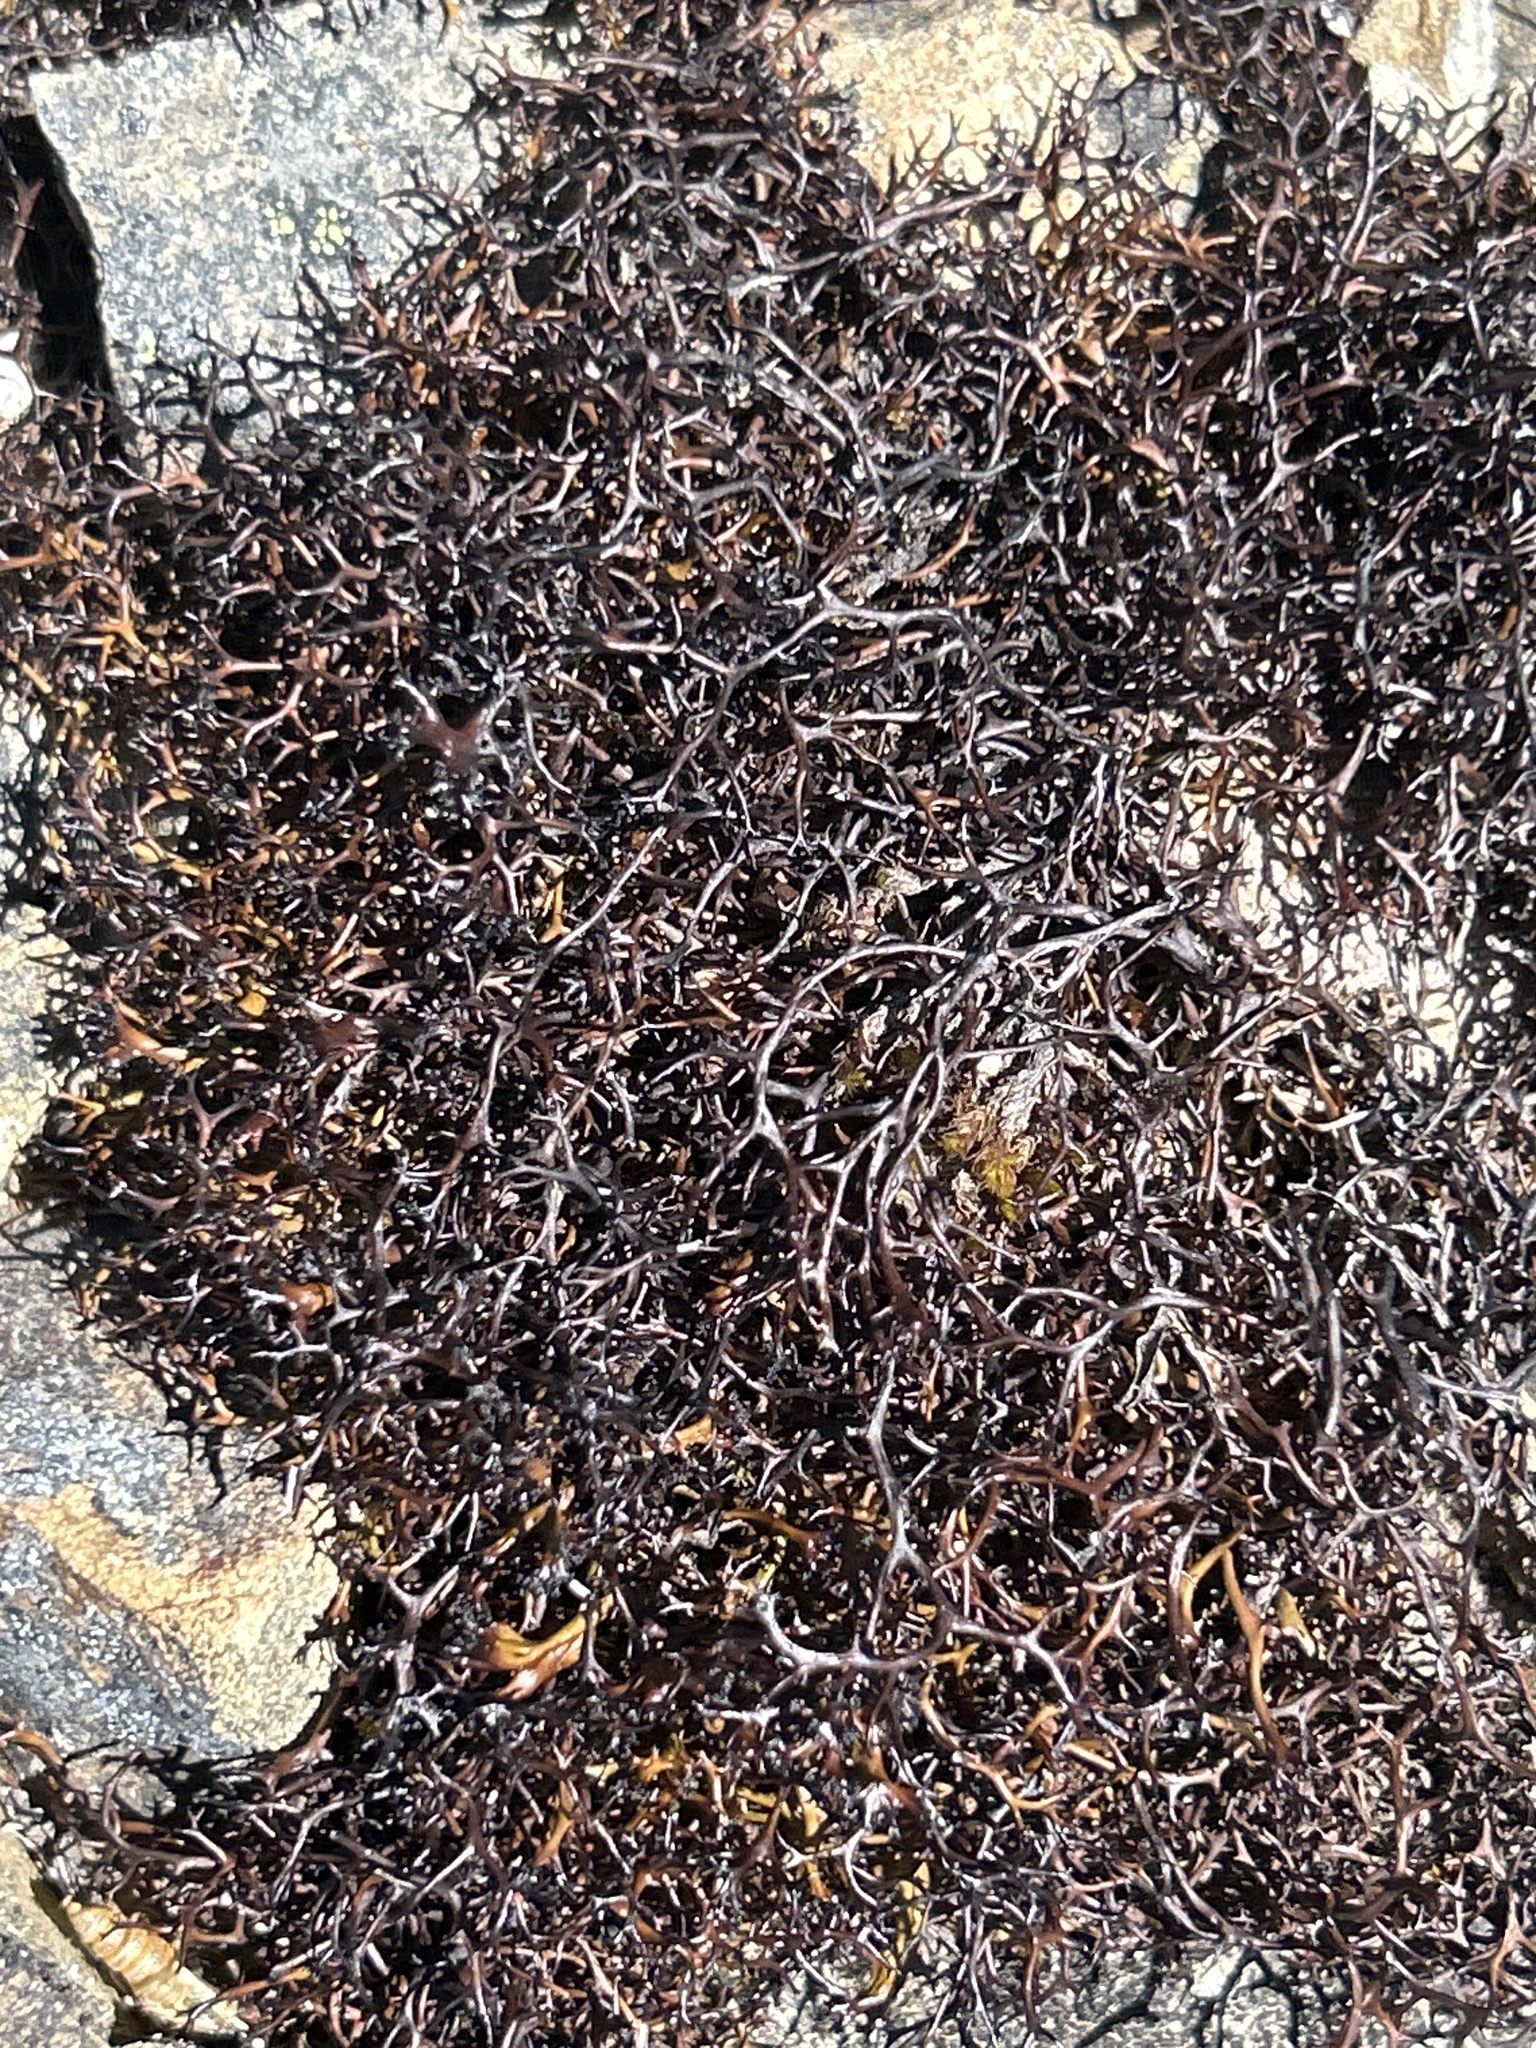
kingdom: Fungi
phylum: Ascomycota
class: Lecanoromycetes
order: Lecanorales
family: Cladoniaceae
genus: Cladia
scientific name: Cladia aggregata
